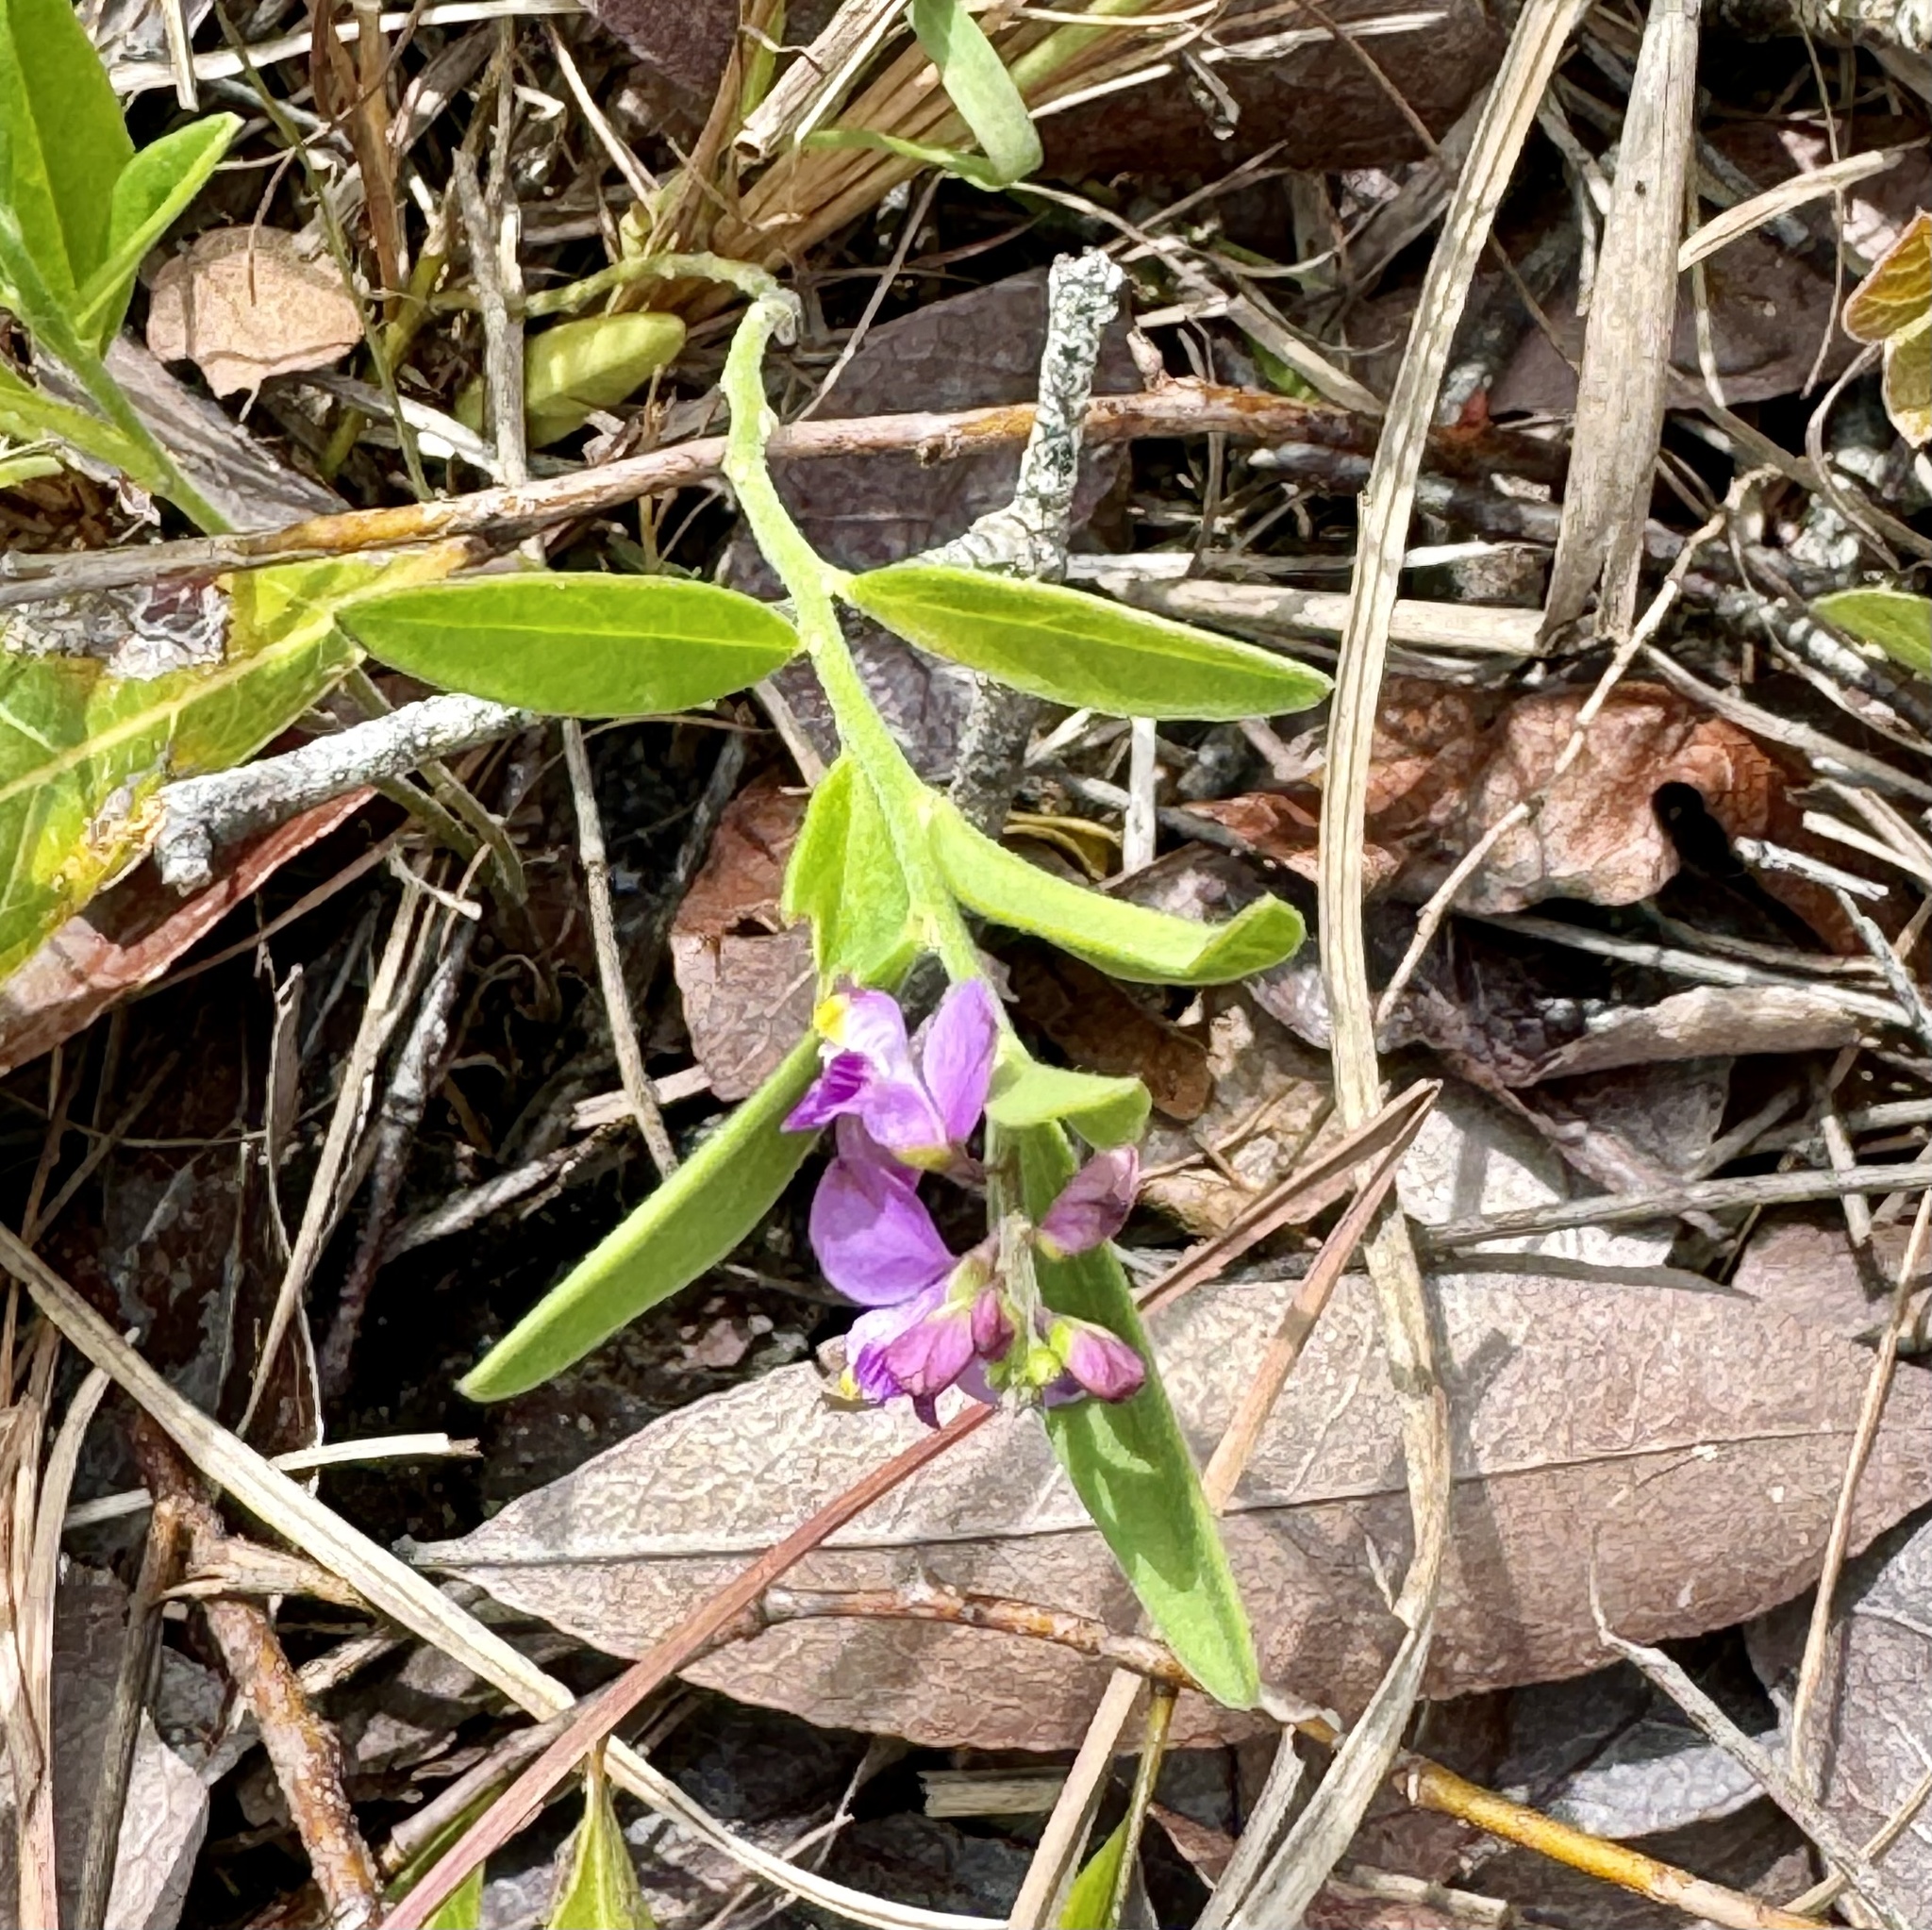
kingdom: Plantae
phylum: Tracheophyta
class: Magnoliopsida
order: Fabales
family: Polygalaceae
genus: Asemeia
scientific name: Asemeia grandiflora
